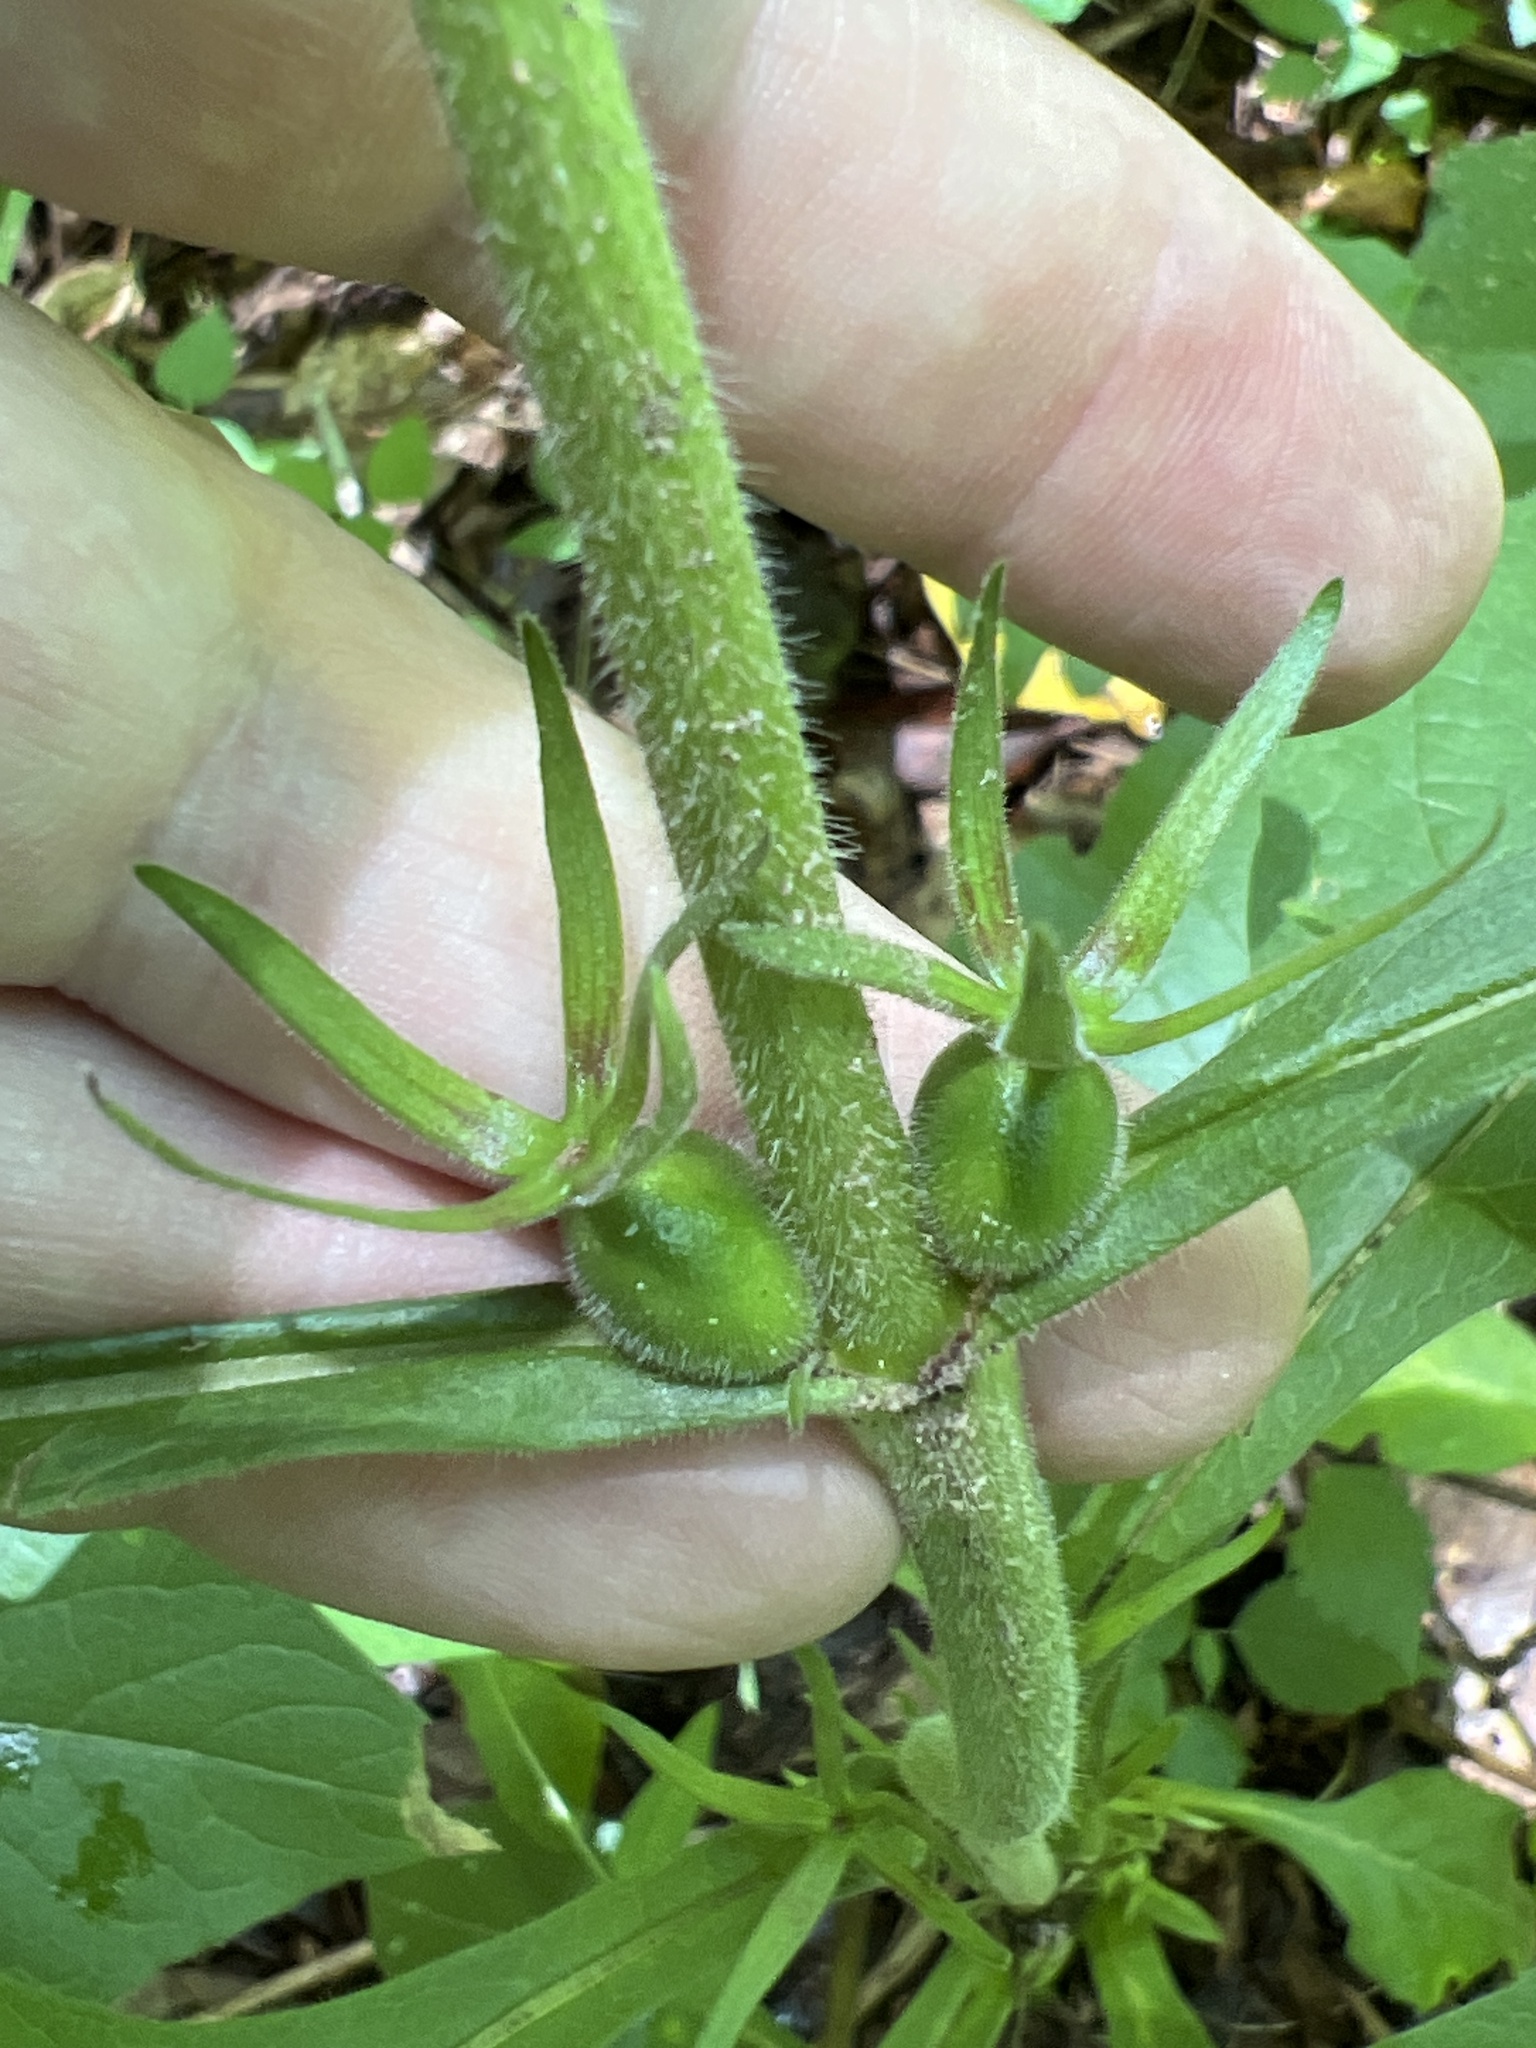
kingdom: Plantae
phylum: Tracheophyta
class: Magnoliopsida
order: Dipsacales
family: Caprifoliaceae
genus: Triosteum
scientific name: Triosteum aurantiacum
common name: Coffee tinker's-weed
